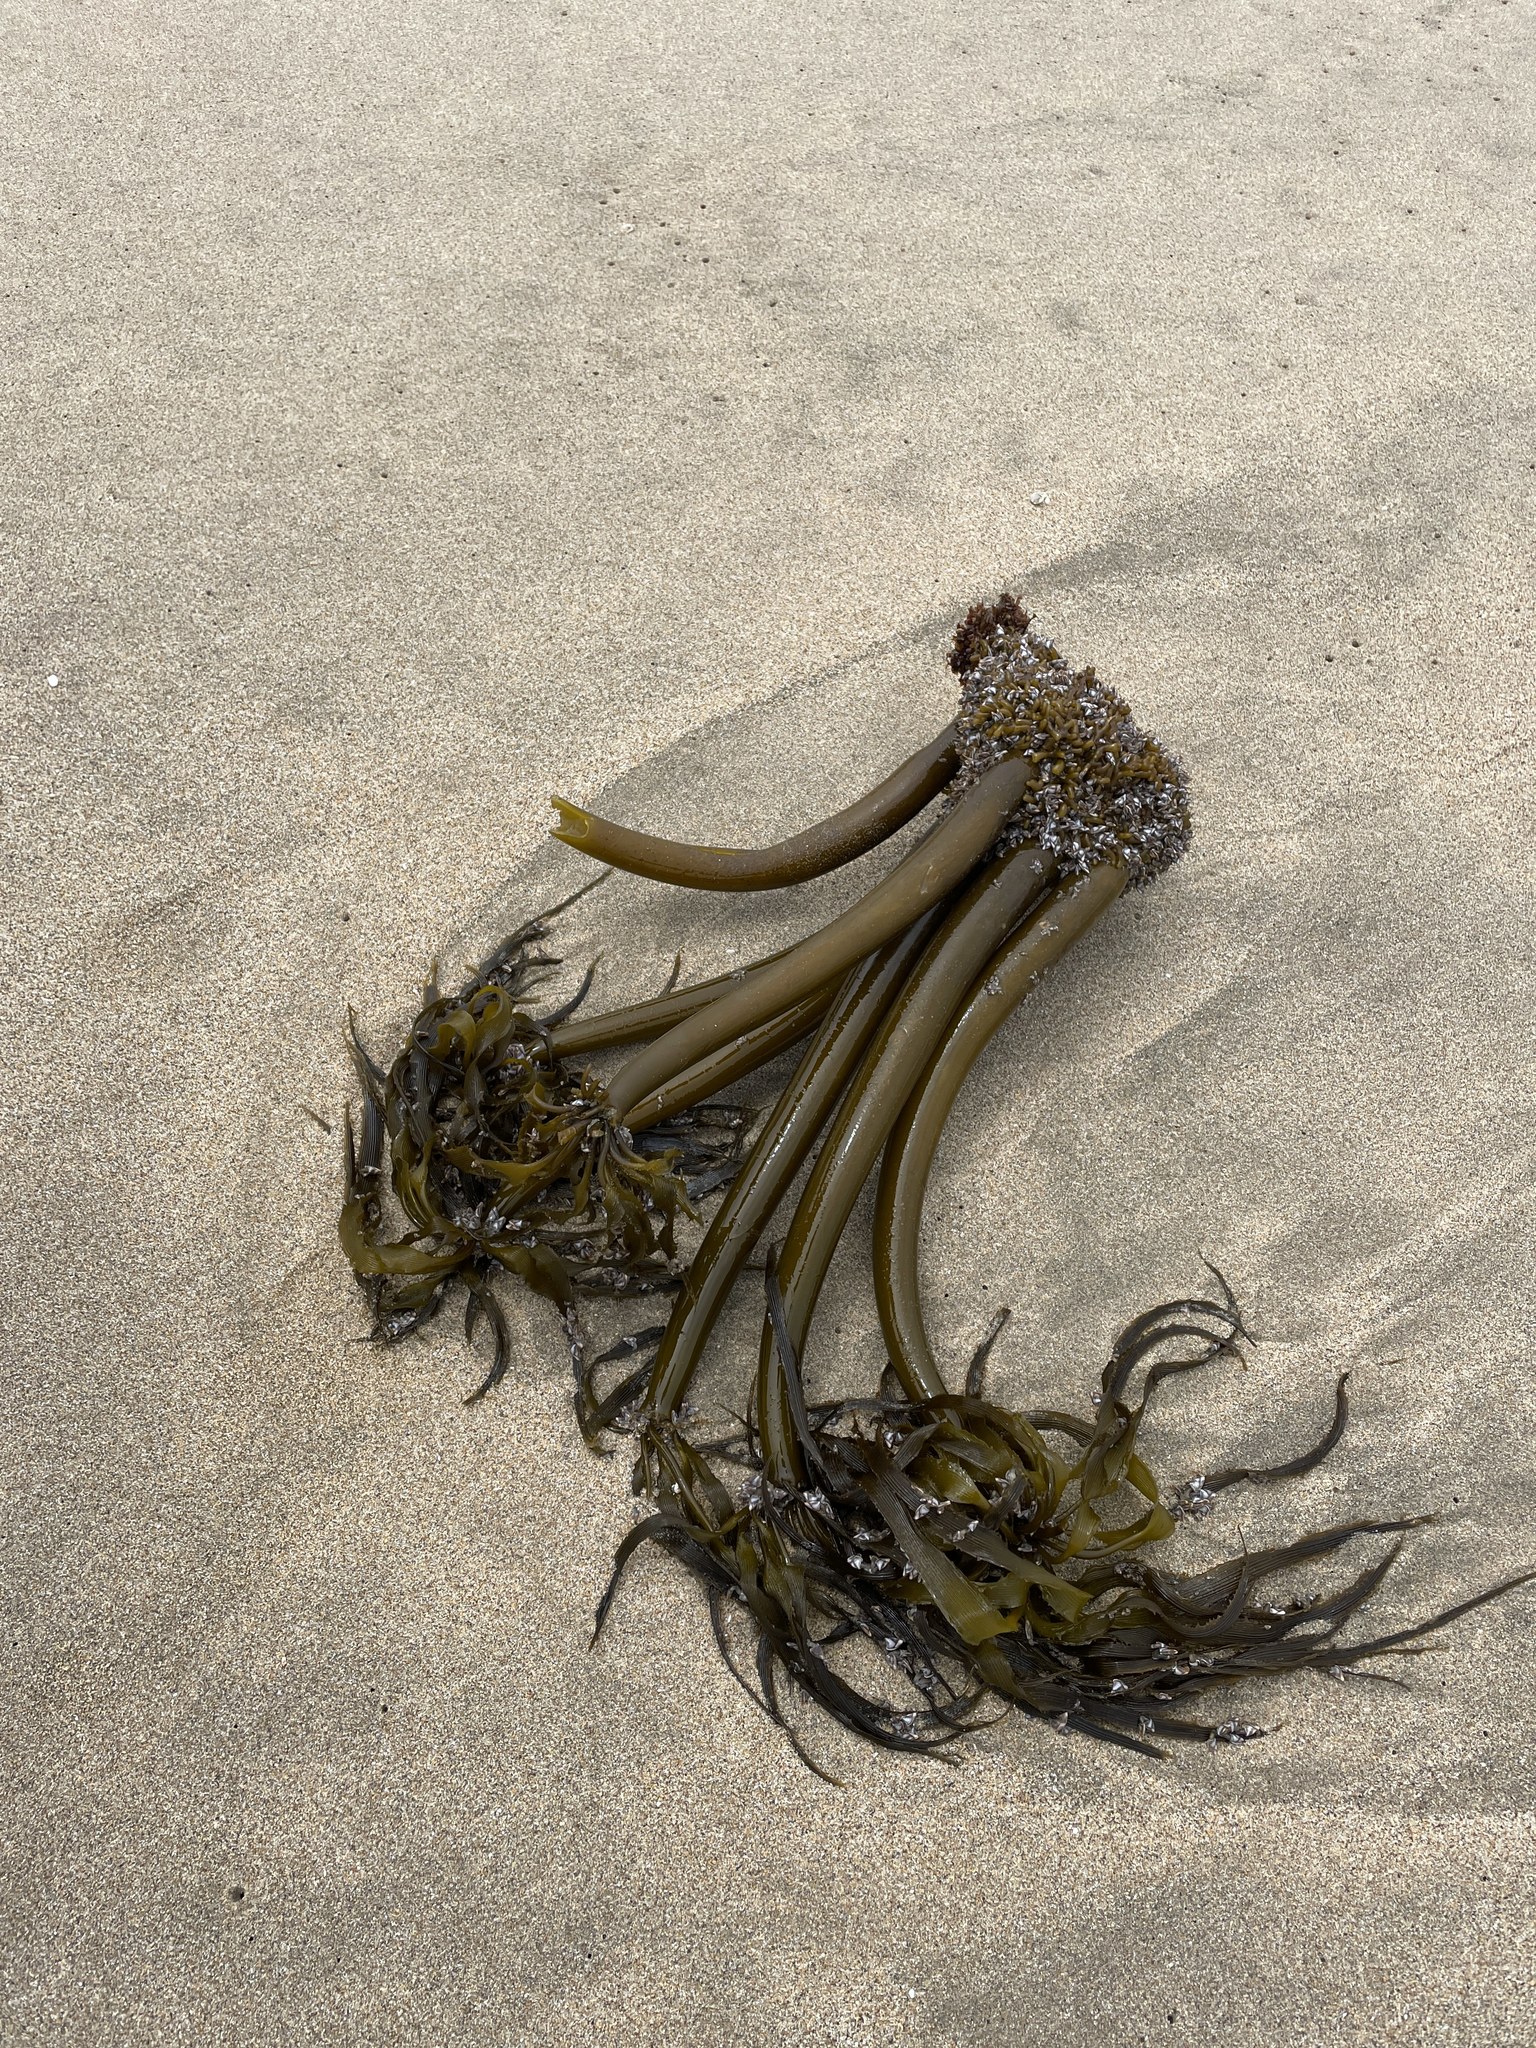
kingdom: Chromista
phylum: Ochrophyta
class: Phaeophyceae
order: Laminariales
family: Laminariaceae
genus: Postelsia
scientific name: Postelsia palmiformis
